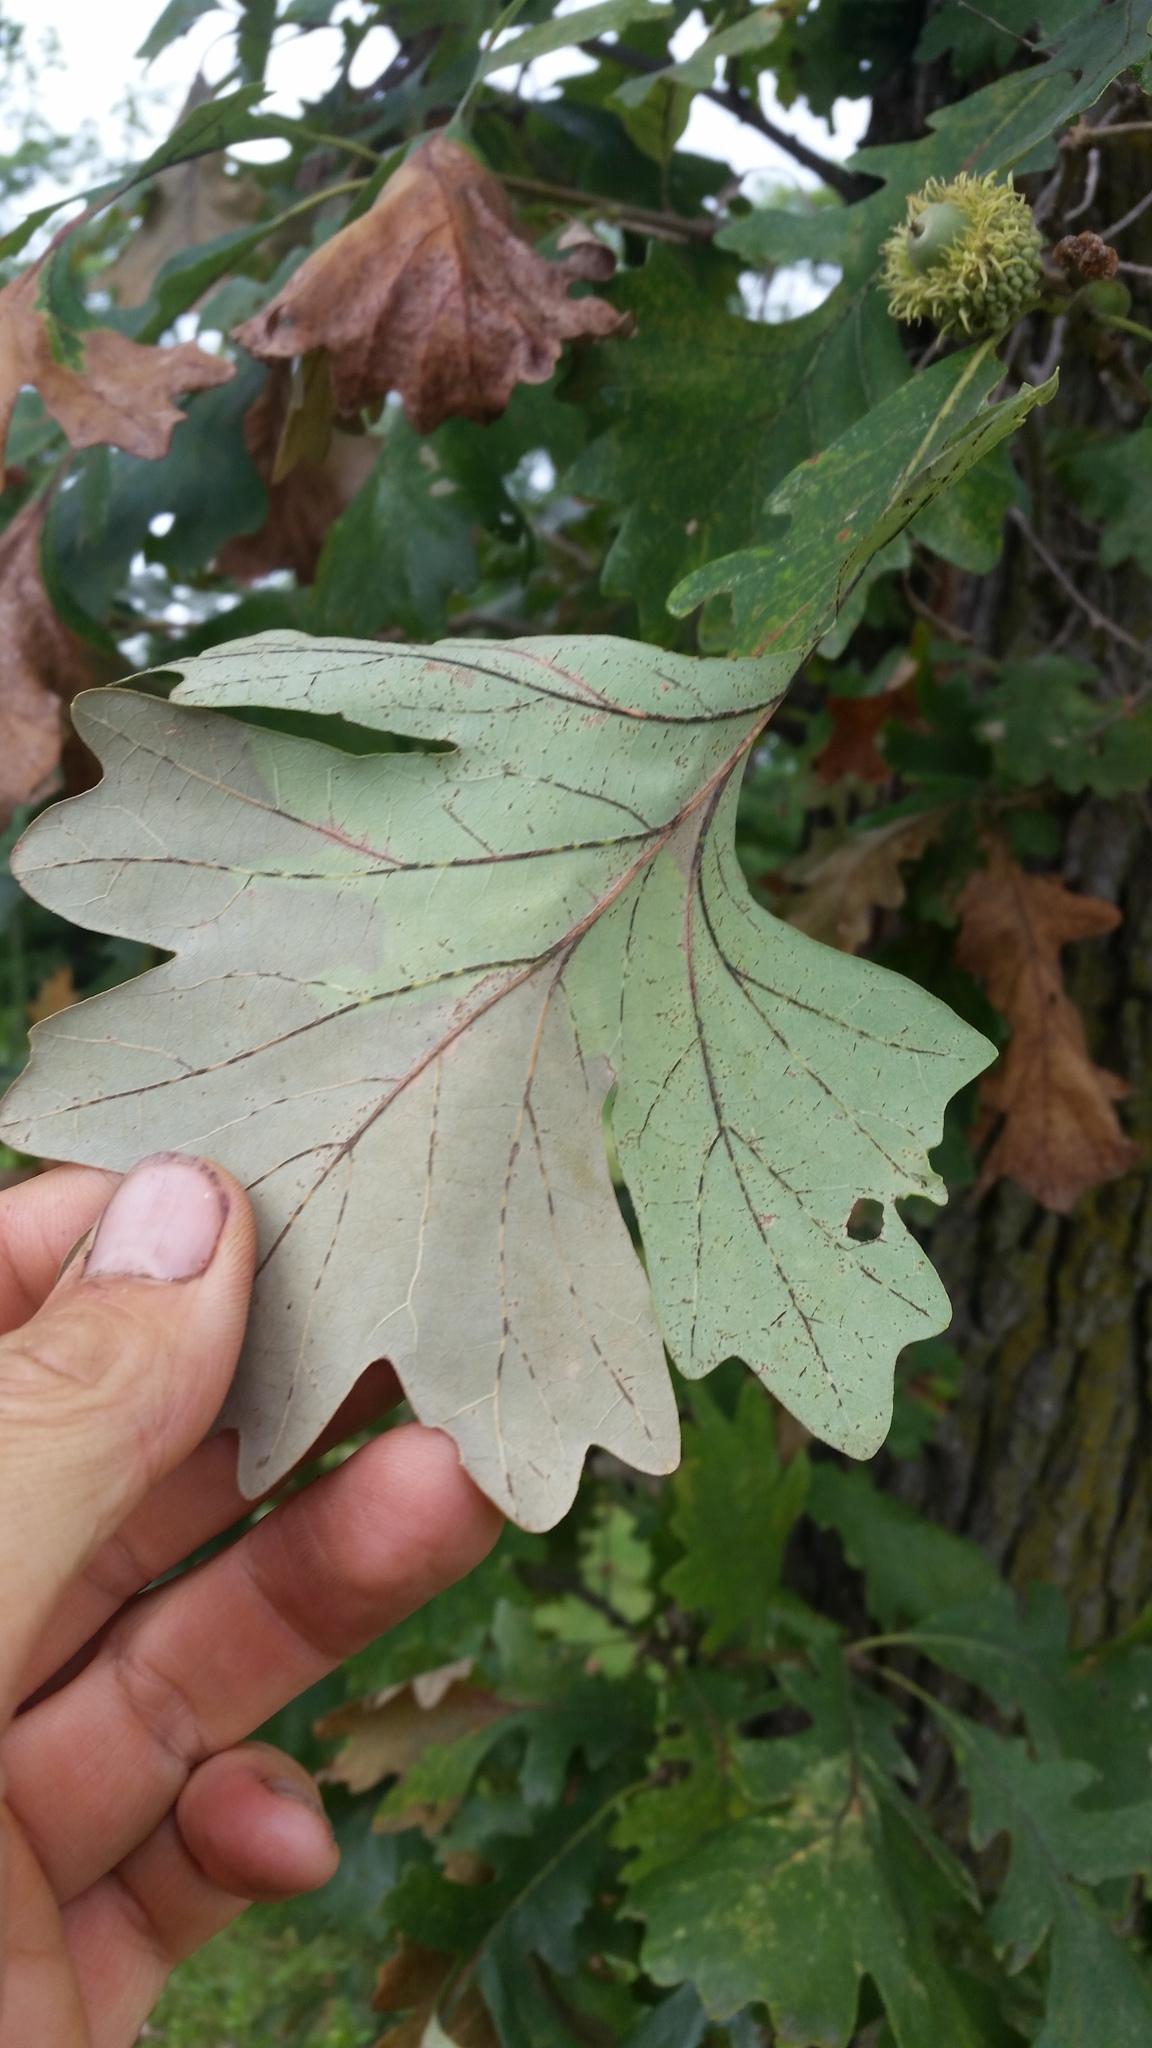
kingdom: Fungi
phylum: Ascomycota
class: Sordariomycetes
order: Diaporthales
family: Tubakiaceae
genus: Tubakia
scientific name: Tubakia iowensis
